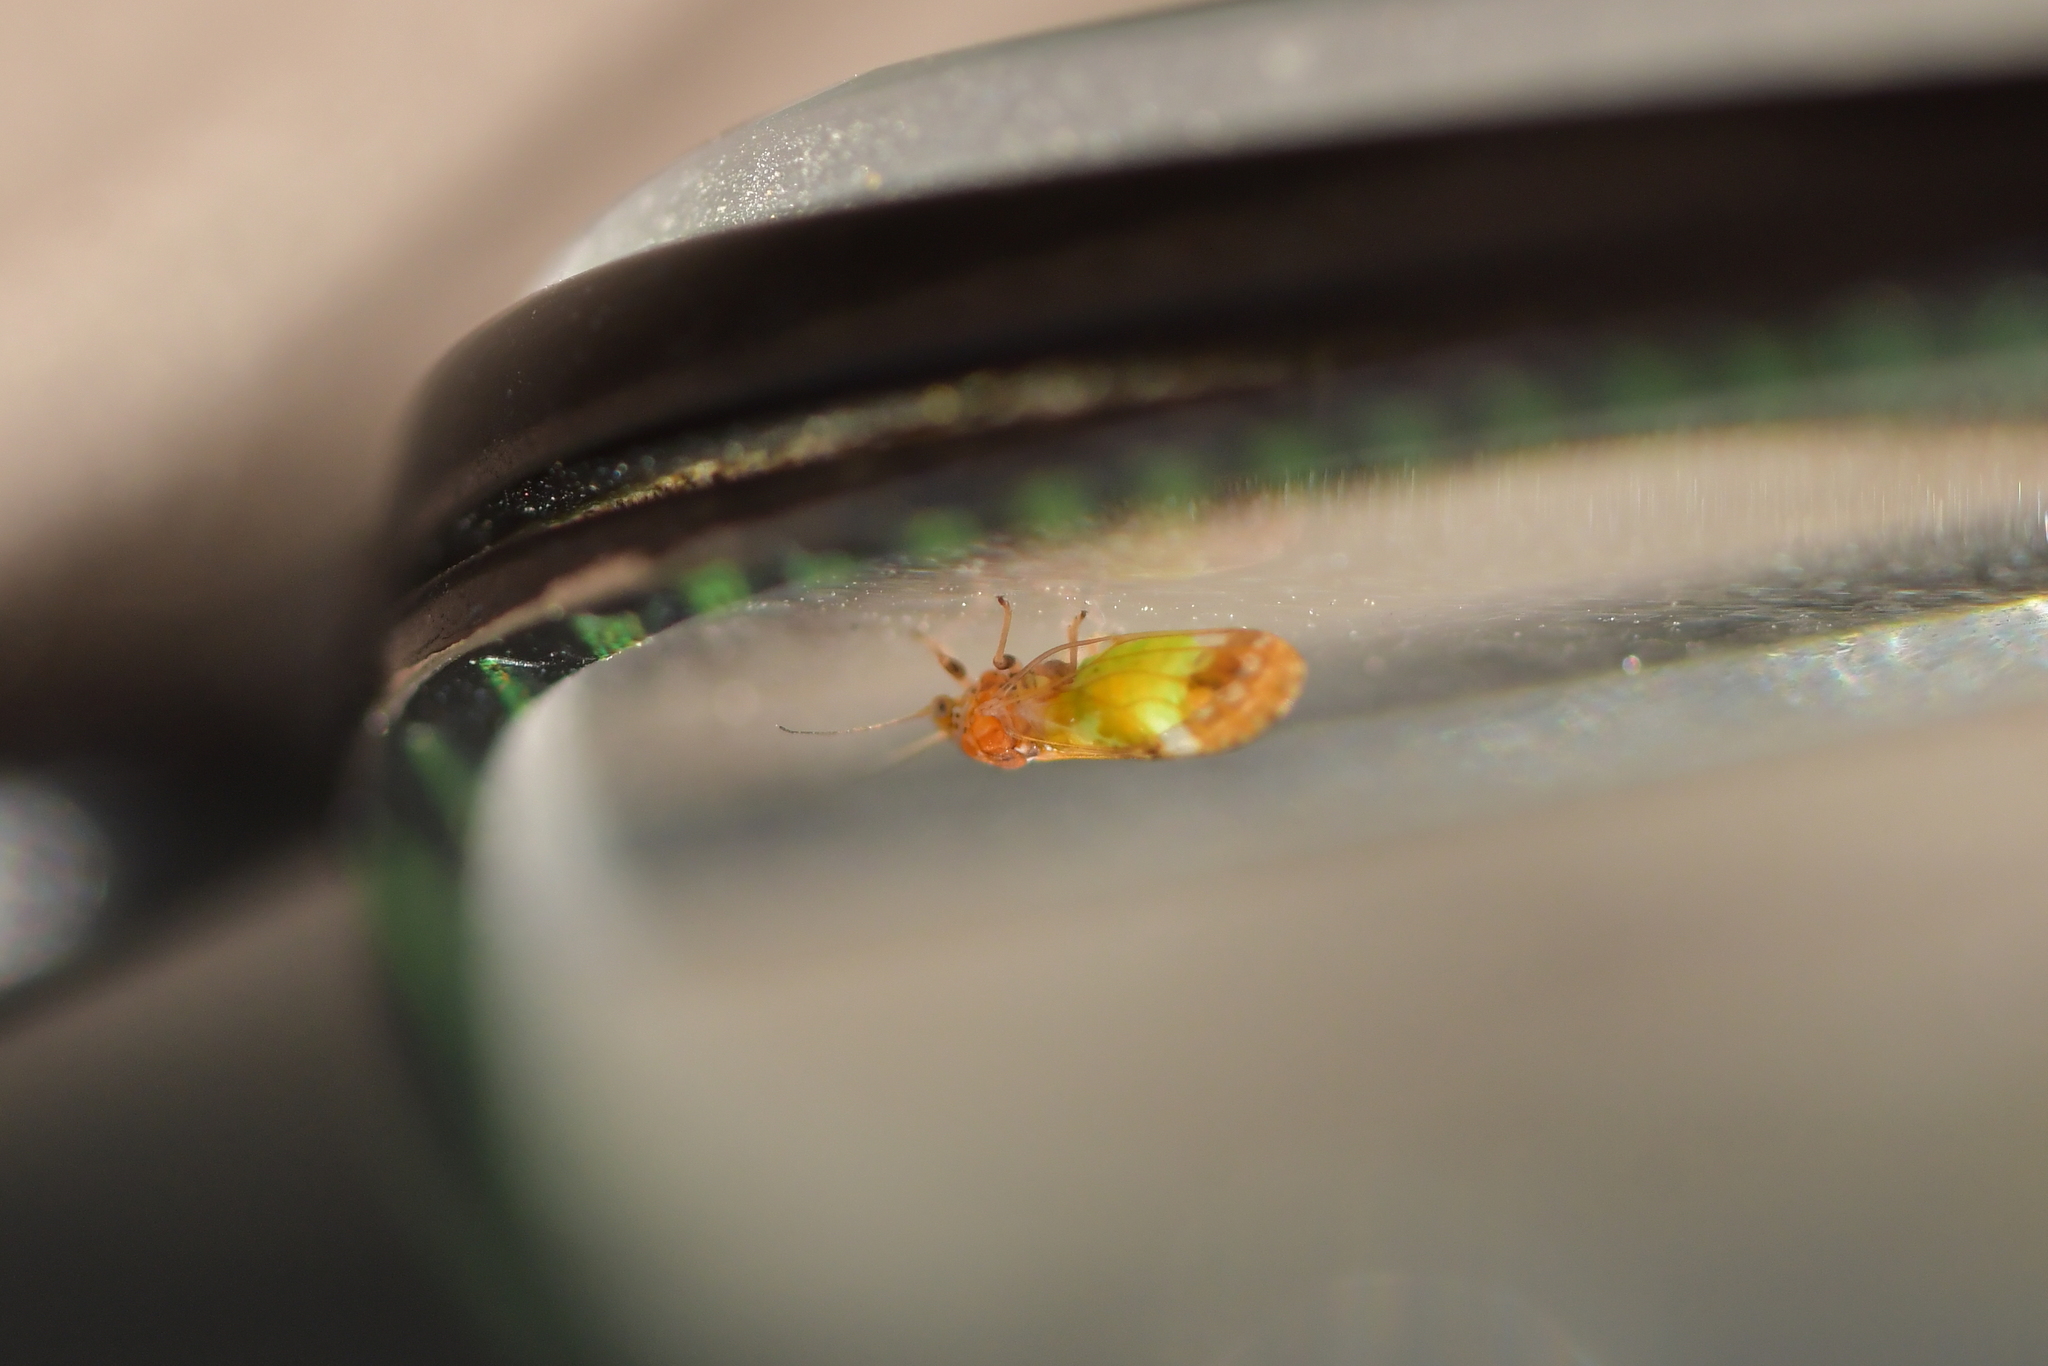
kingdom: Animalia
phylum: Arthropoda
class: Insecta
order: Hemiptera
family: Psyllidae
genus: Acizzia
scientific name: Acizzia conspicua
